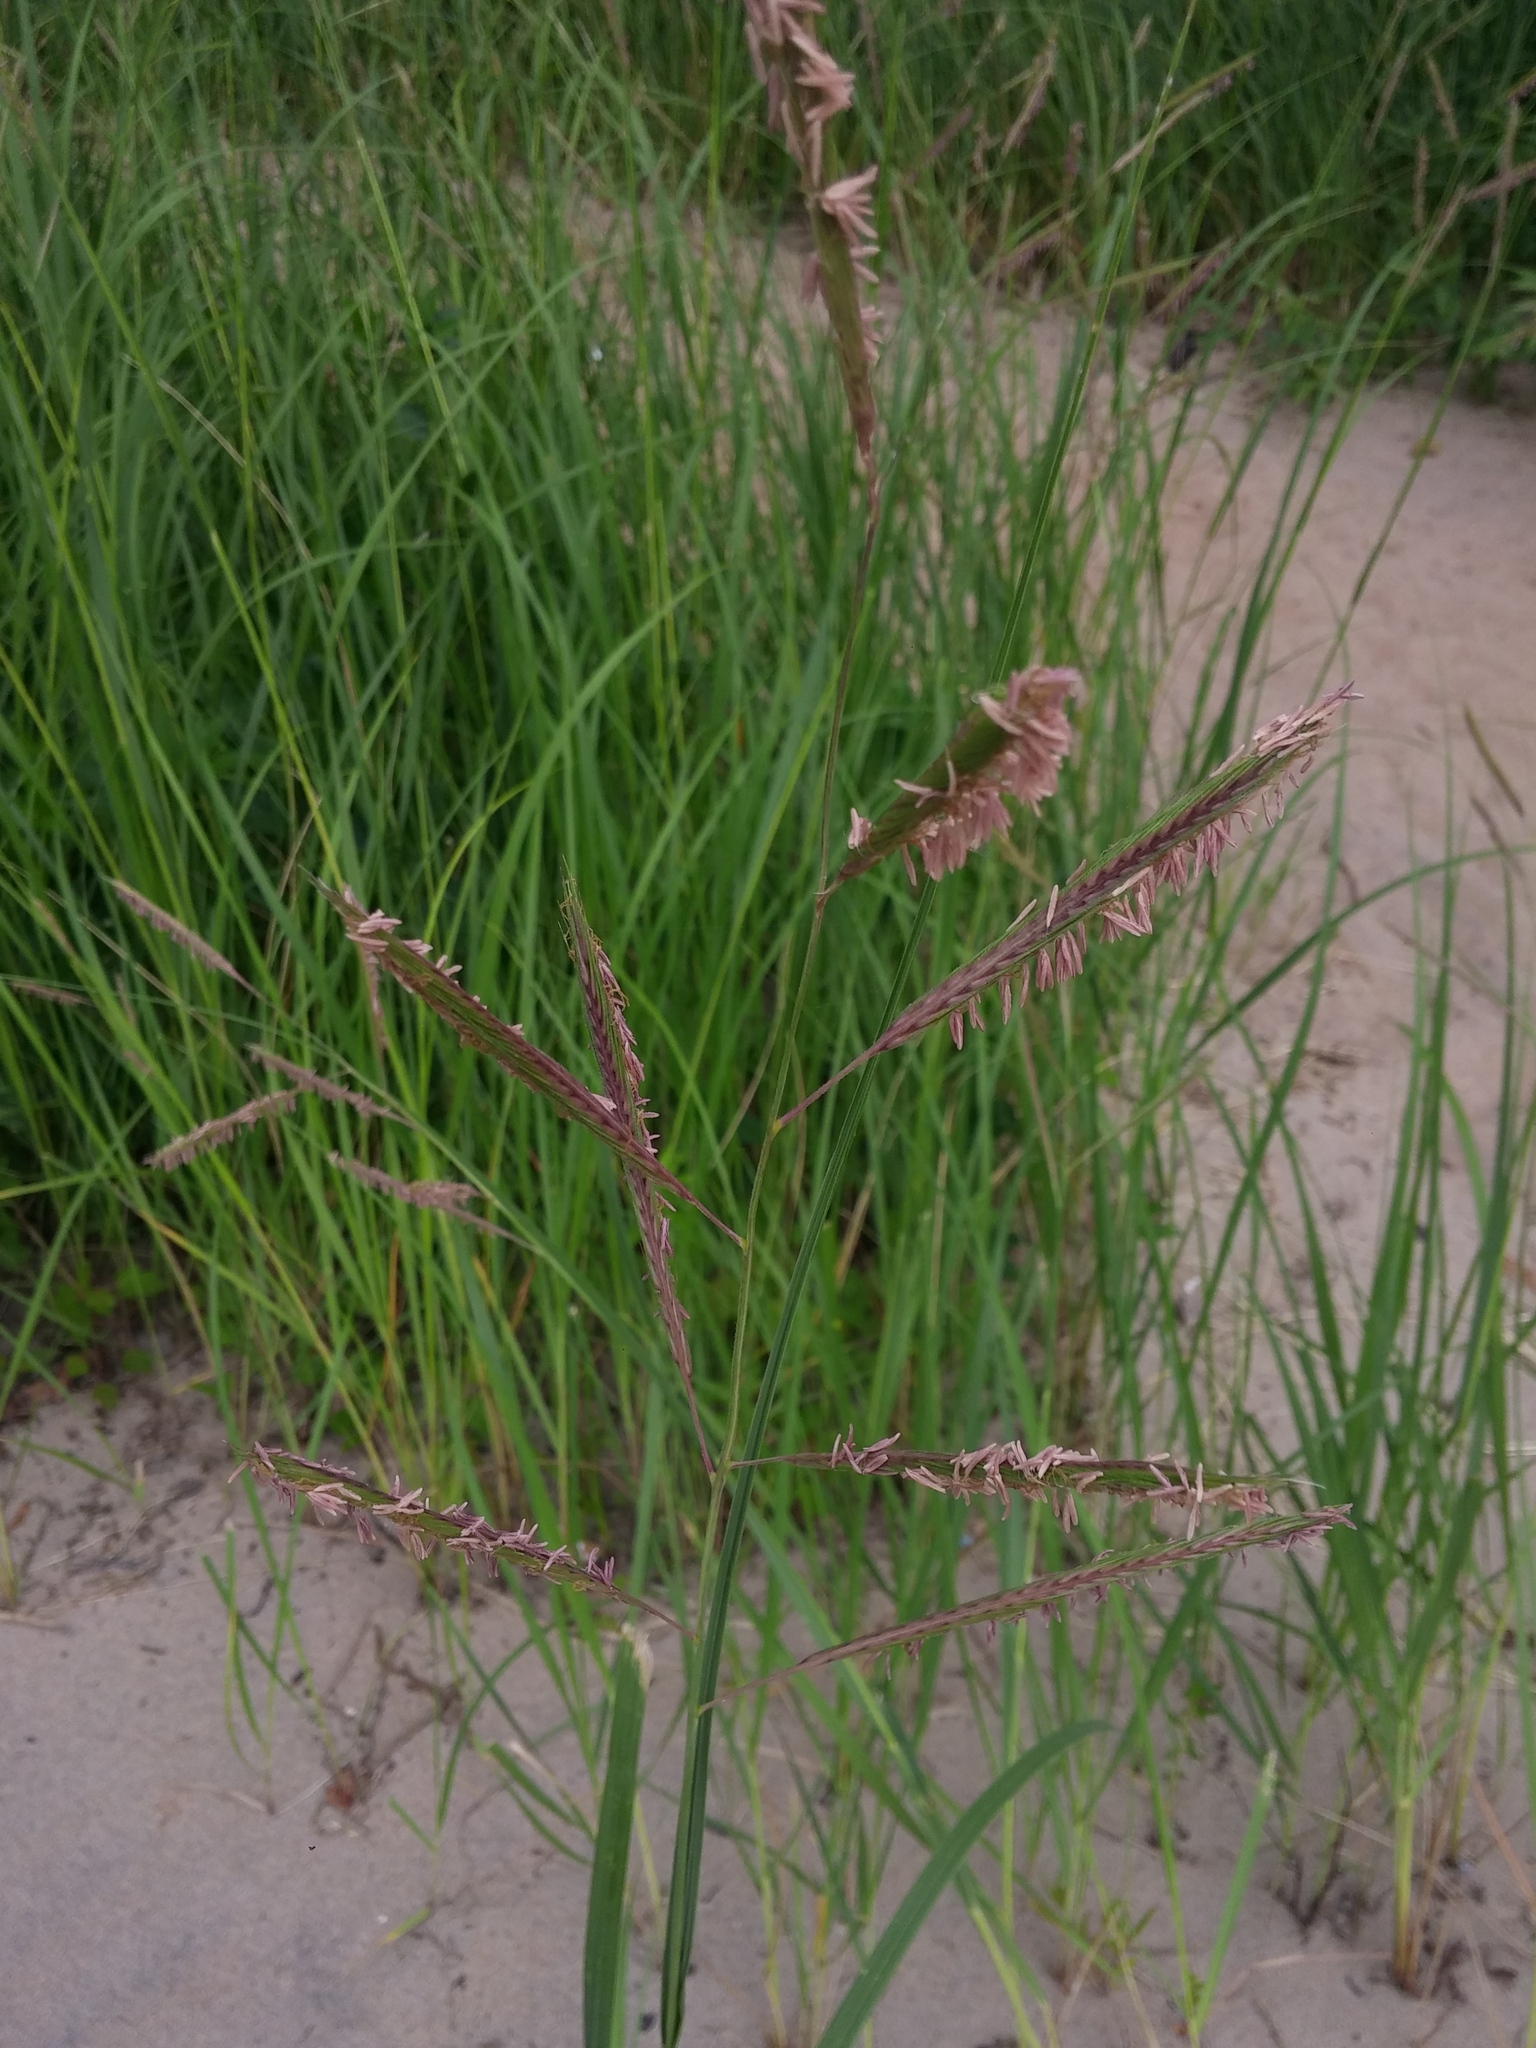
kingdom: Plantae
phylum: Tracheophyta
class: Liliopsida
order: Poales
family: Poaceae
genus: Sporobolus
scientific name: Sporobolus michauxianus
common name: Freshwater cordgrass
